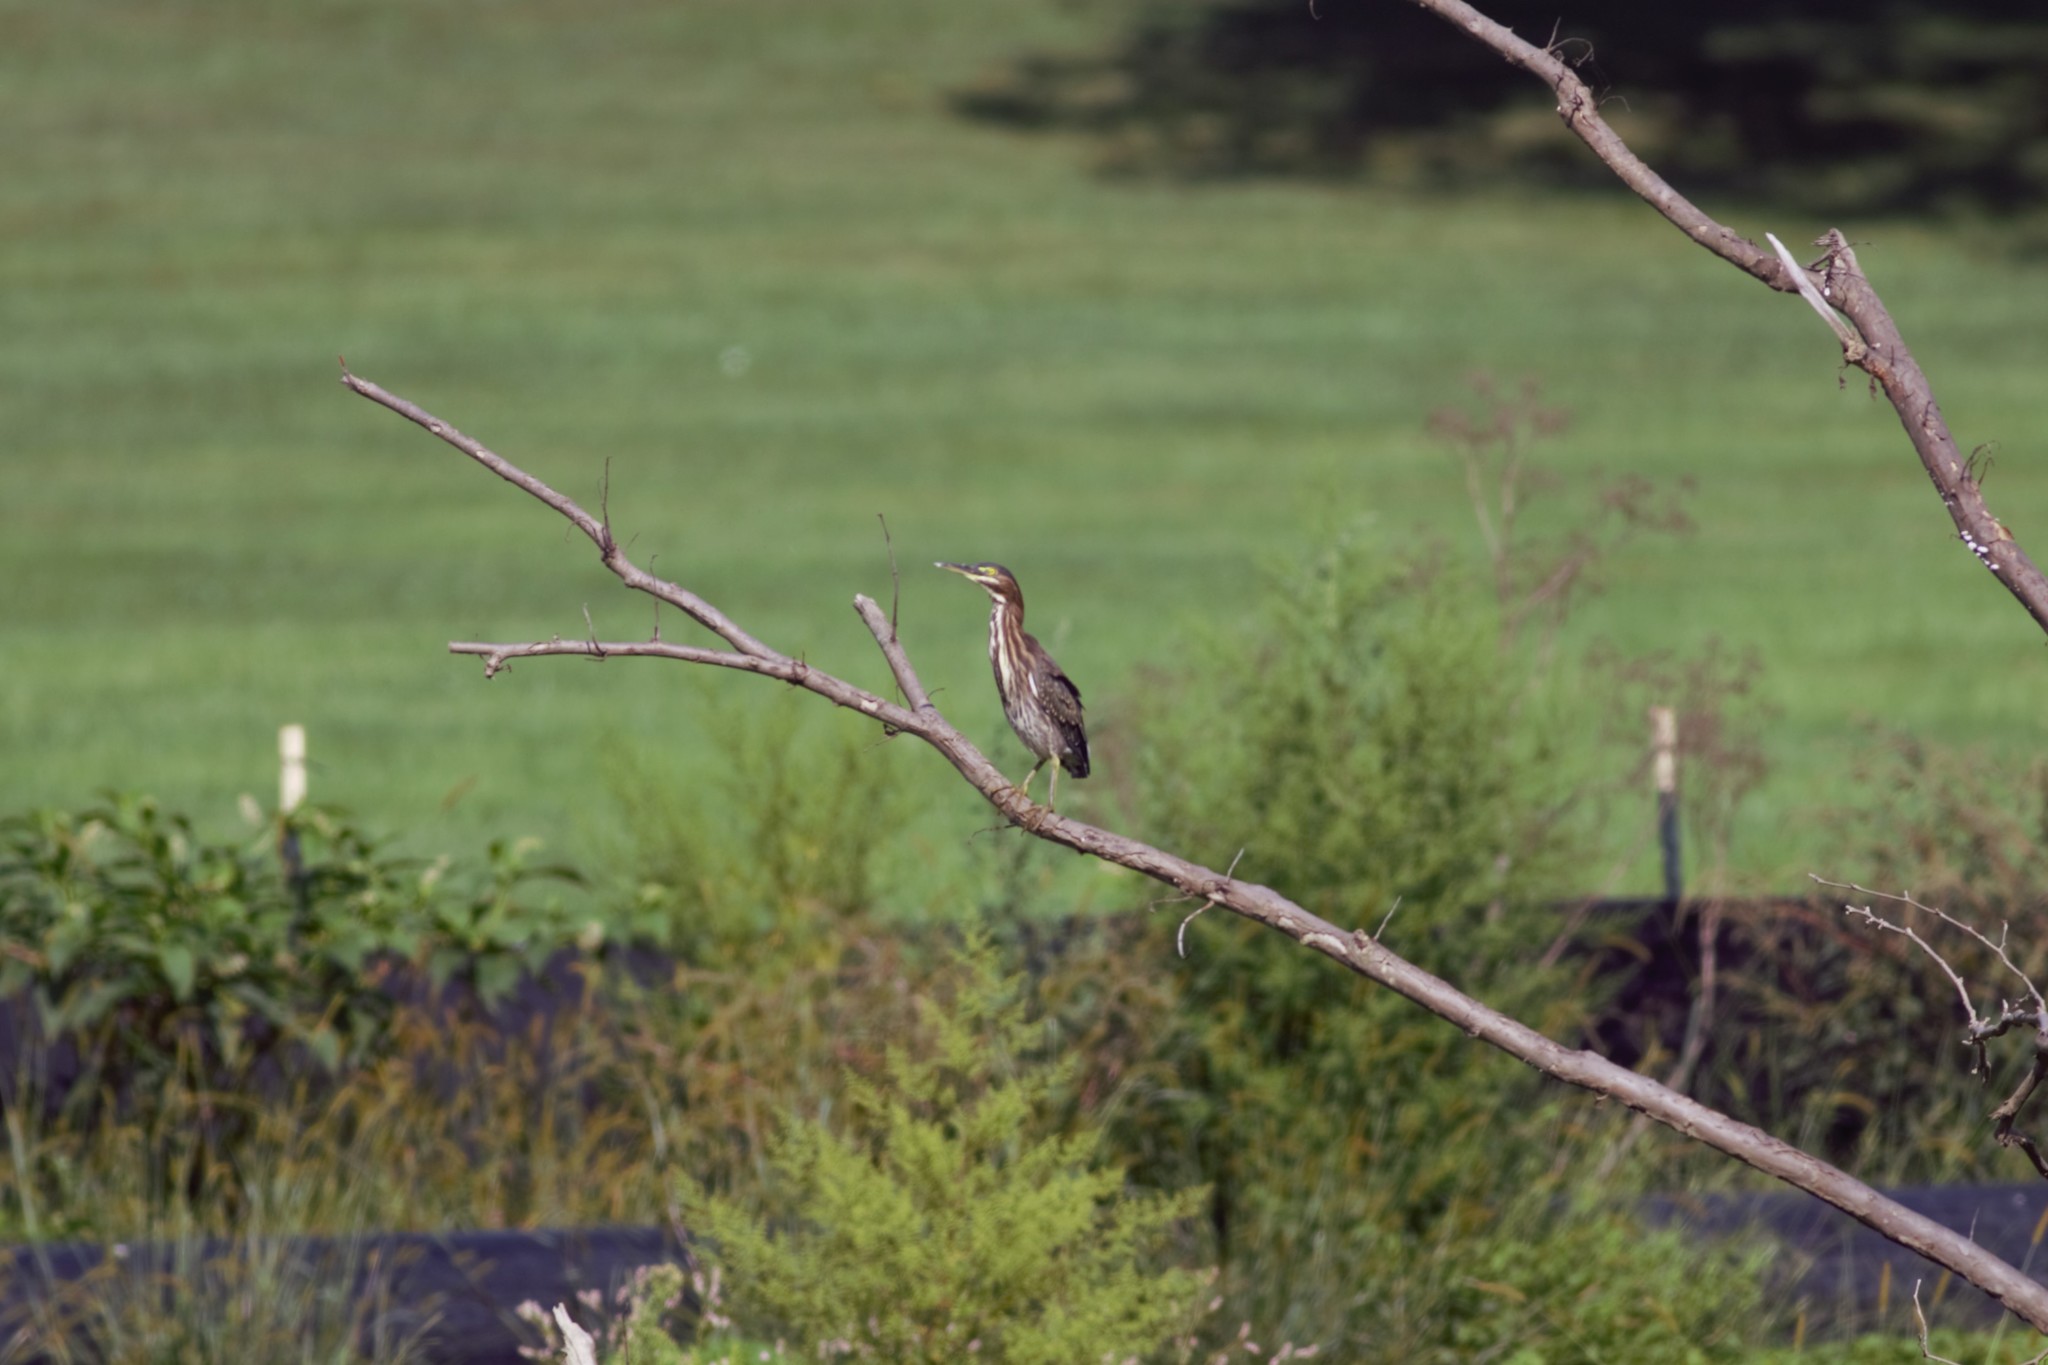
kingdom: Animalia
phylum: Chordata
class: Aves
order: Pelecaniformes
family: Ardeidae
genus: Butorides
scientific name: Butorides virescens
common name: Green heron
